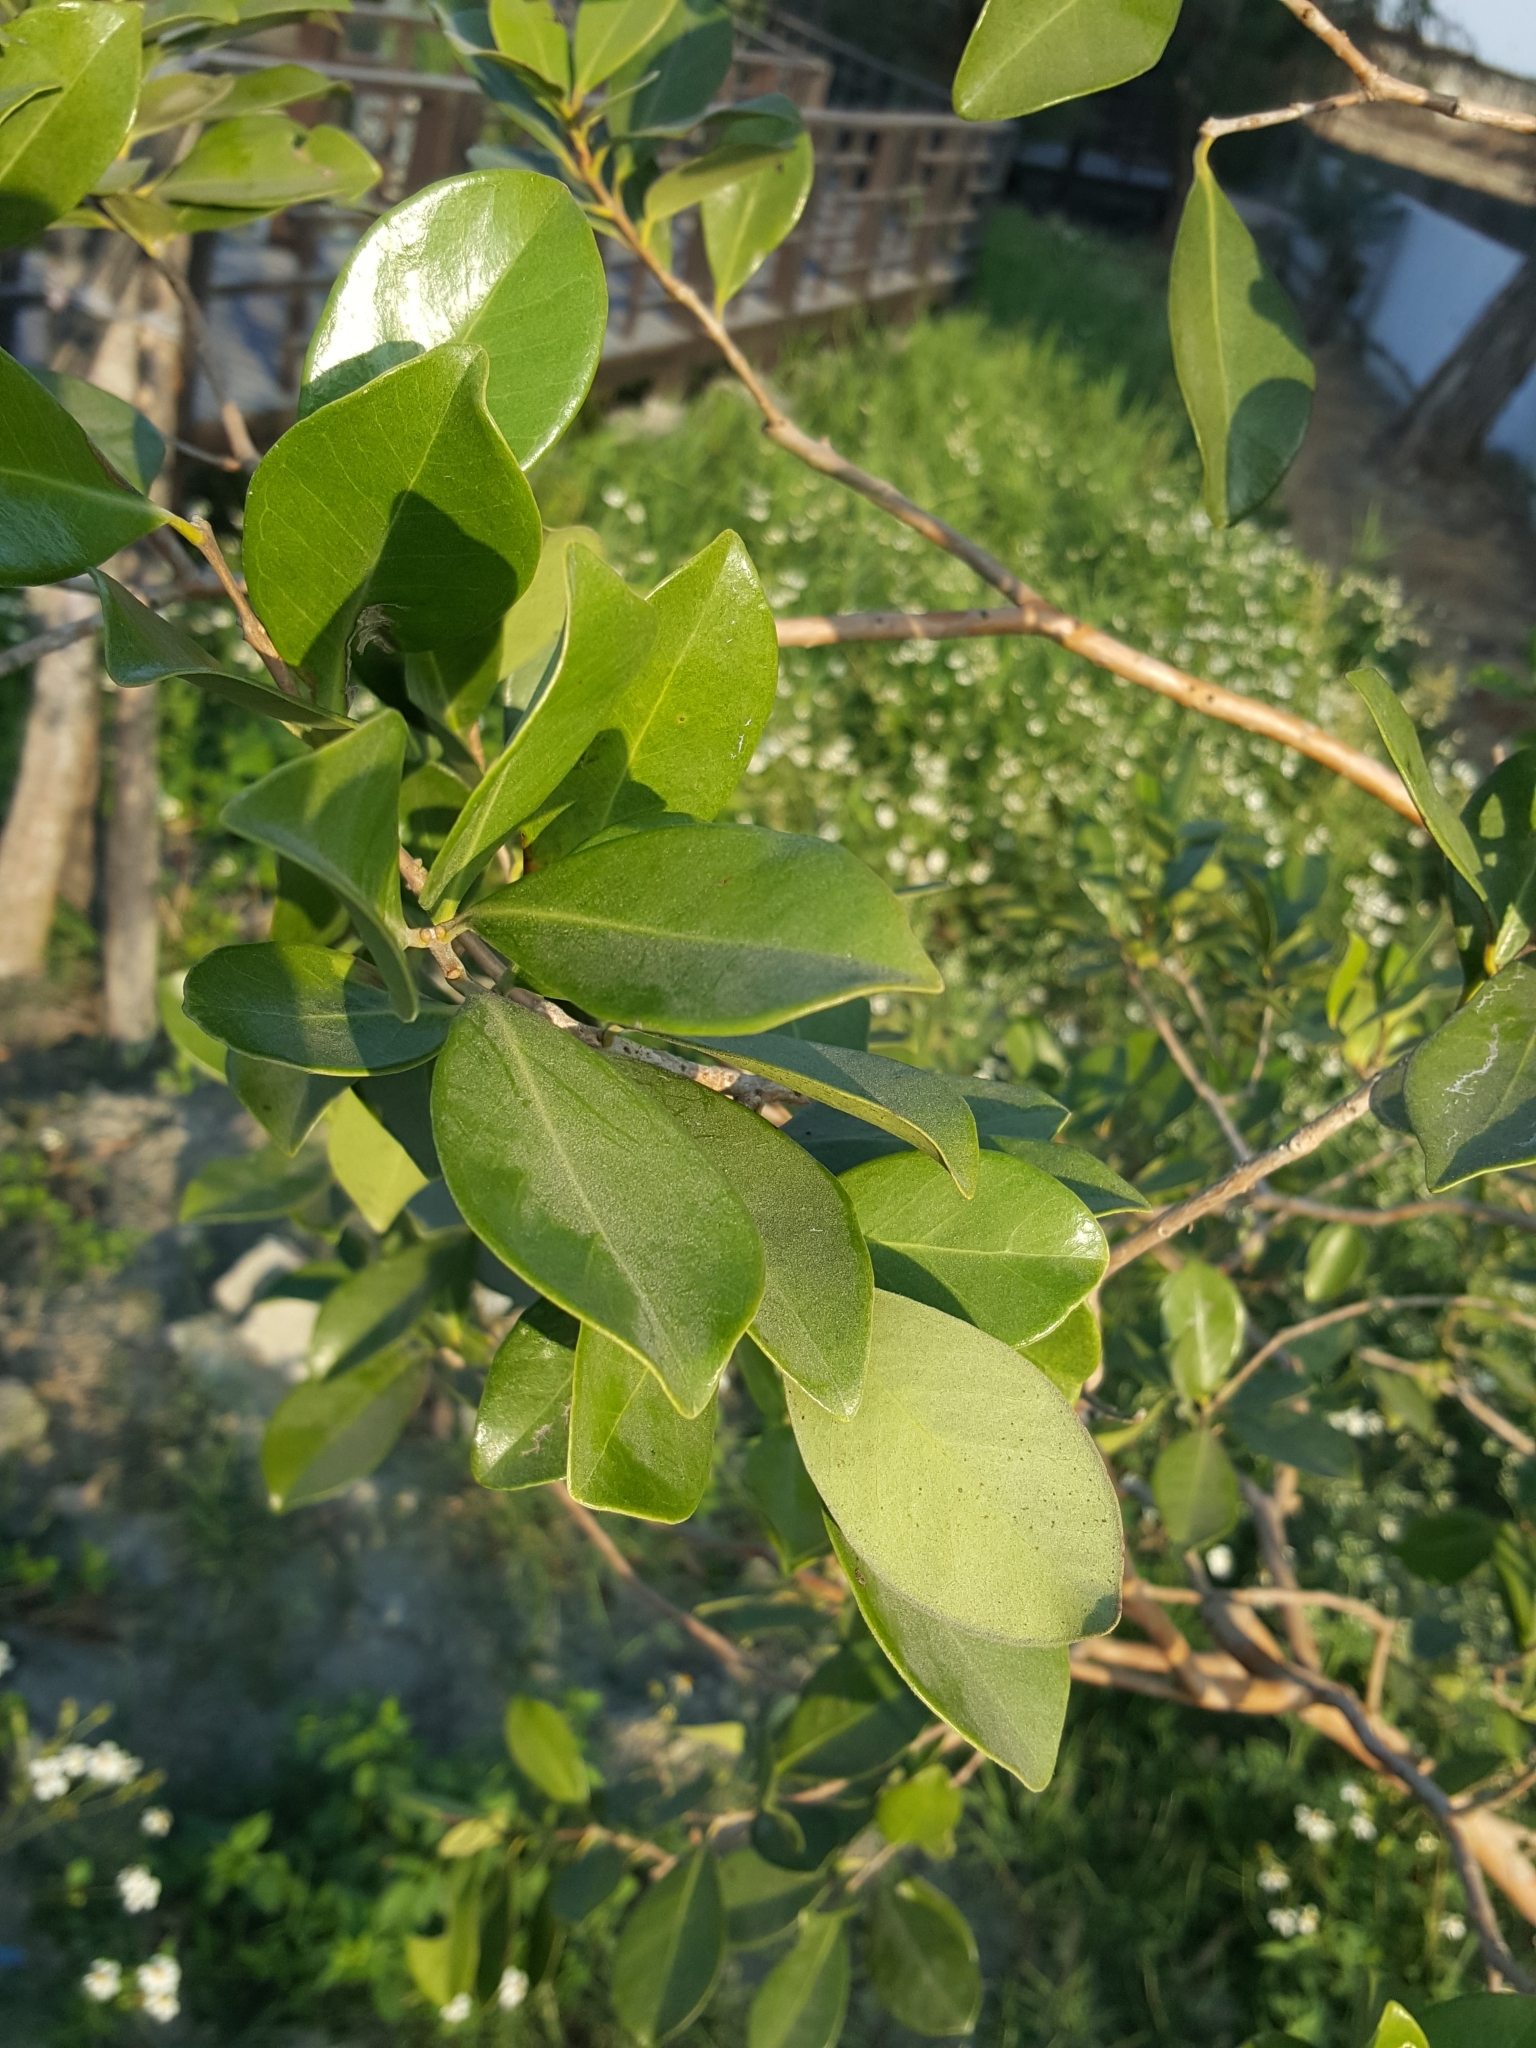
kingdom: Plantae
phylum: Tracheophyta
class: Magnoliopsida
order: Rosales
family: Moraceae
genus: Ficus
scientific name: Ficus microcarpa
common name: Chinese banyan
